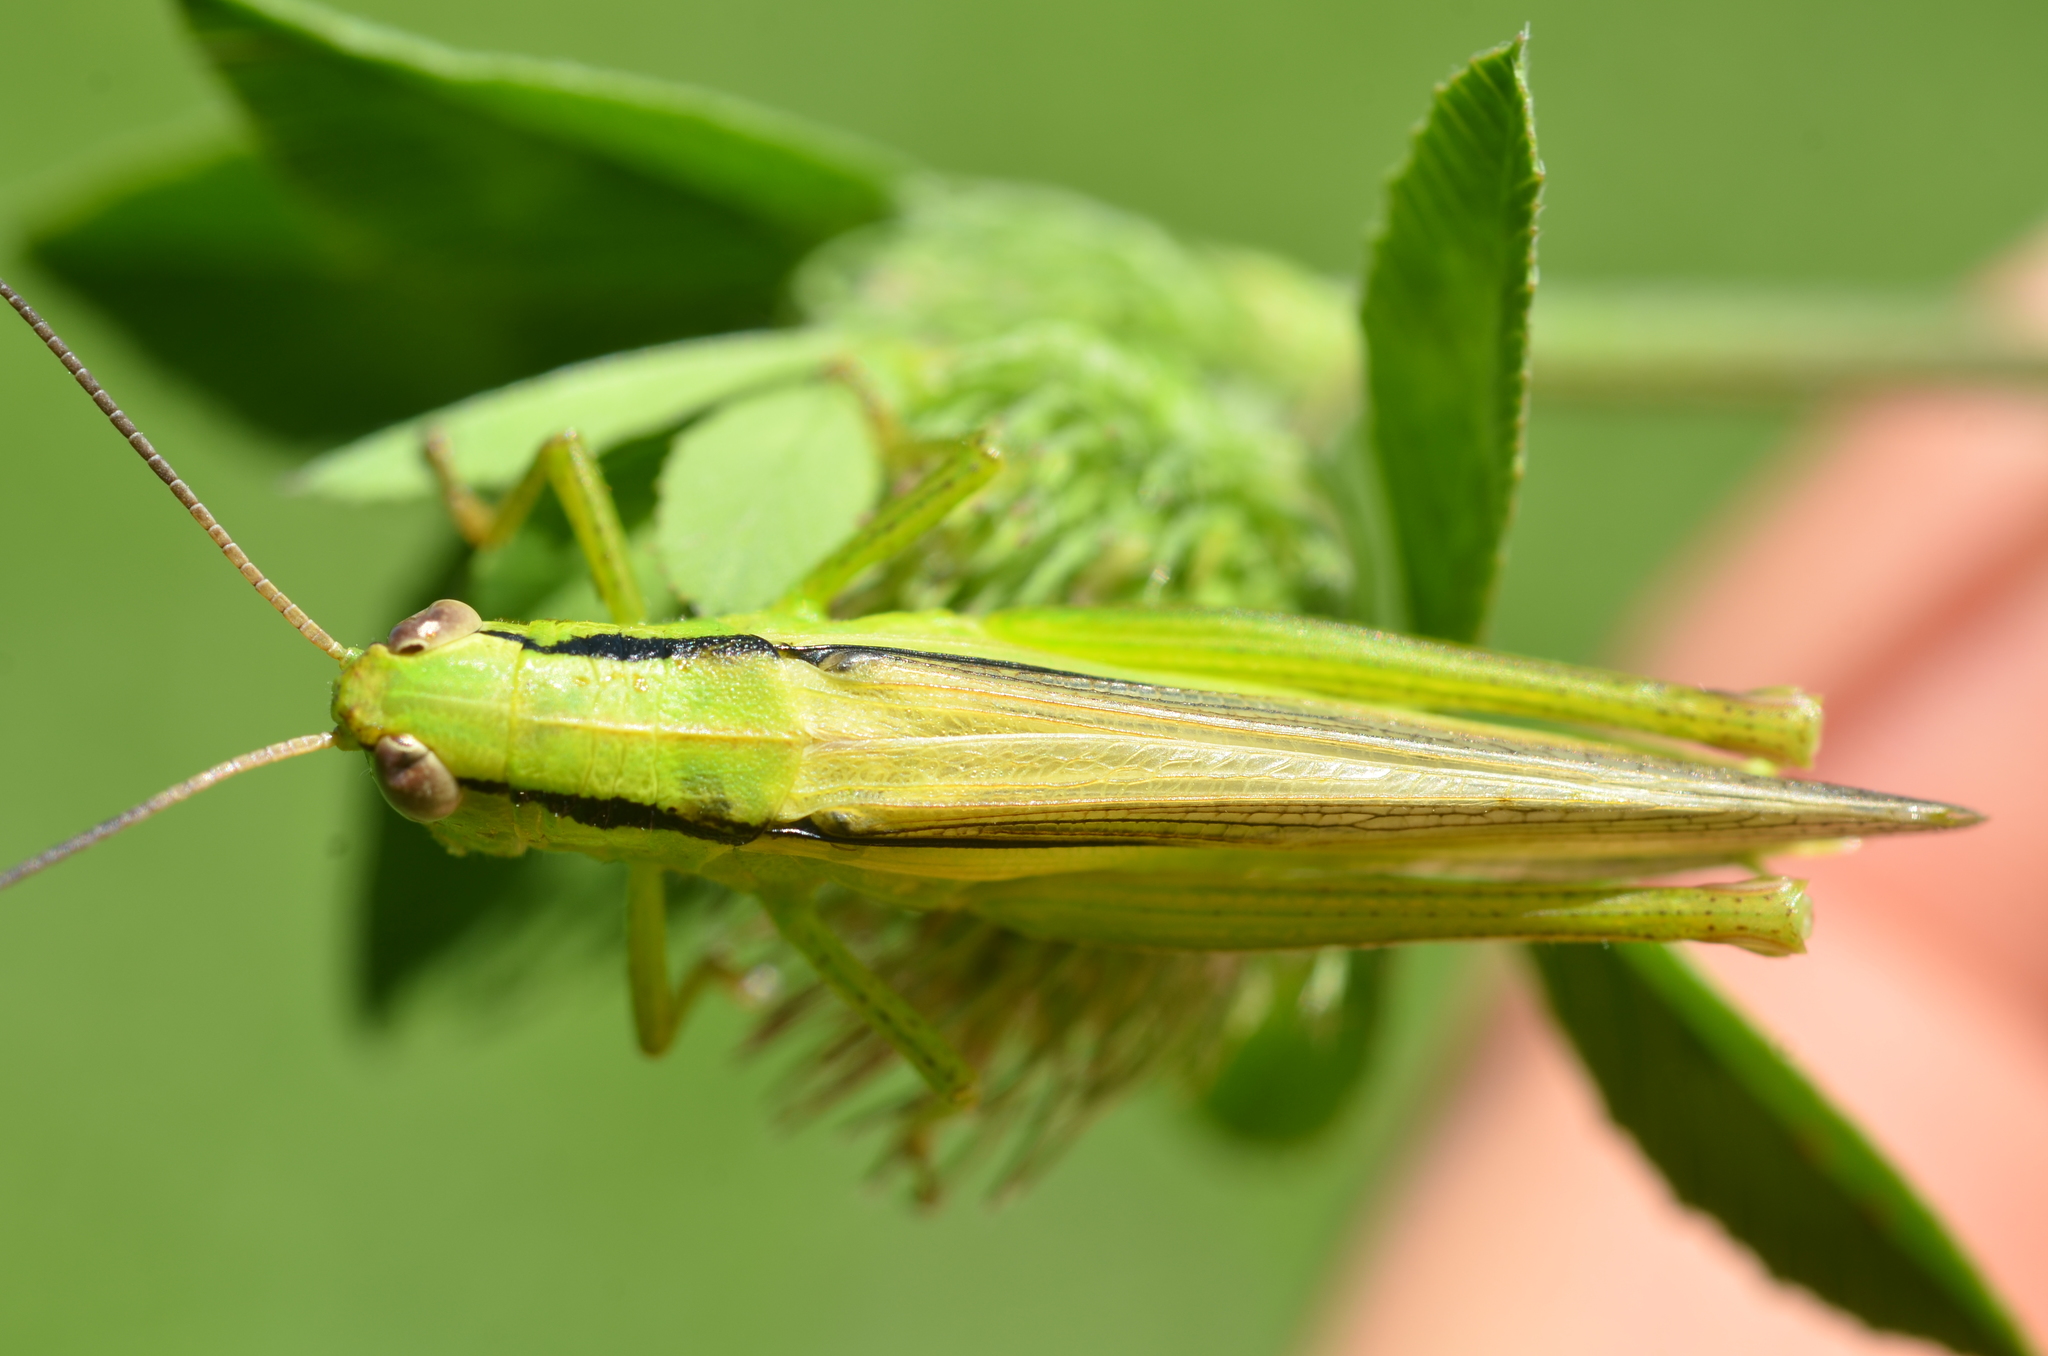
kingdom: Animalia
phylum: Arthropoda
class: Insecta
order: Orthoptera
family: Acrididae
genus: Mecostethus
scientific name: Mecostethus parapleurus
